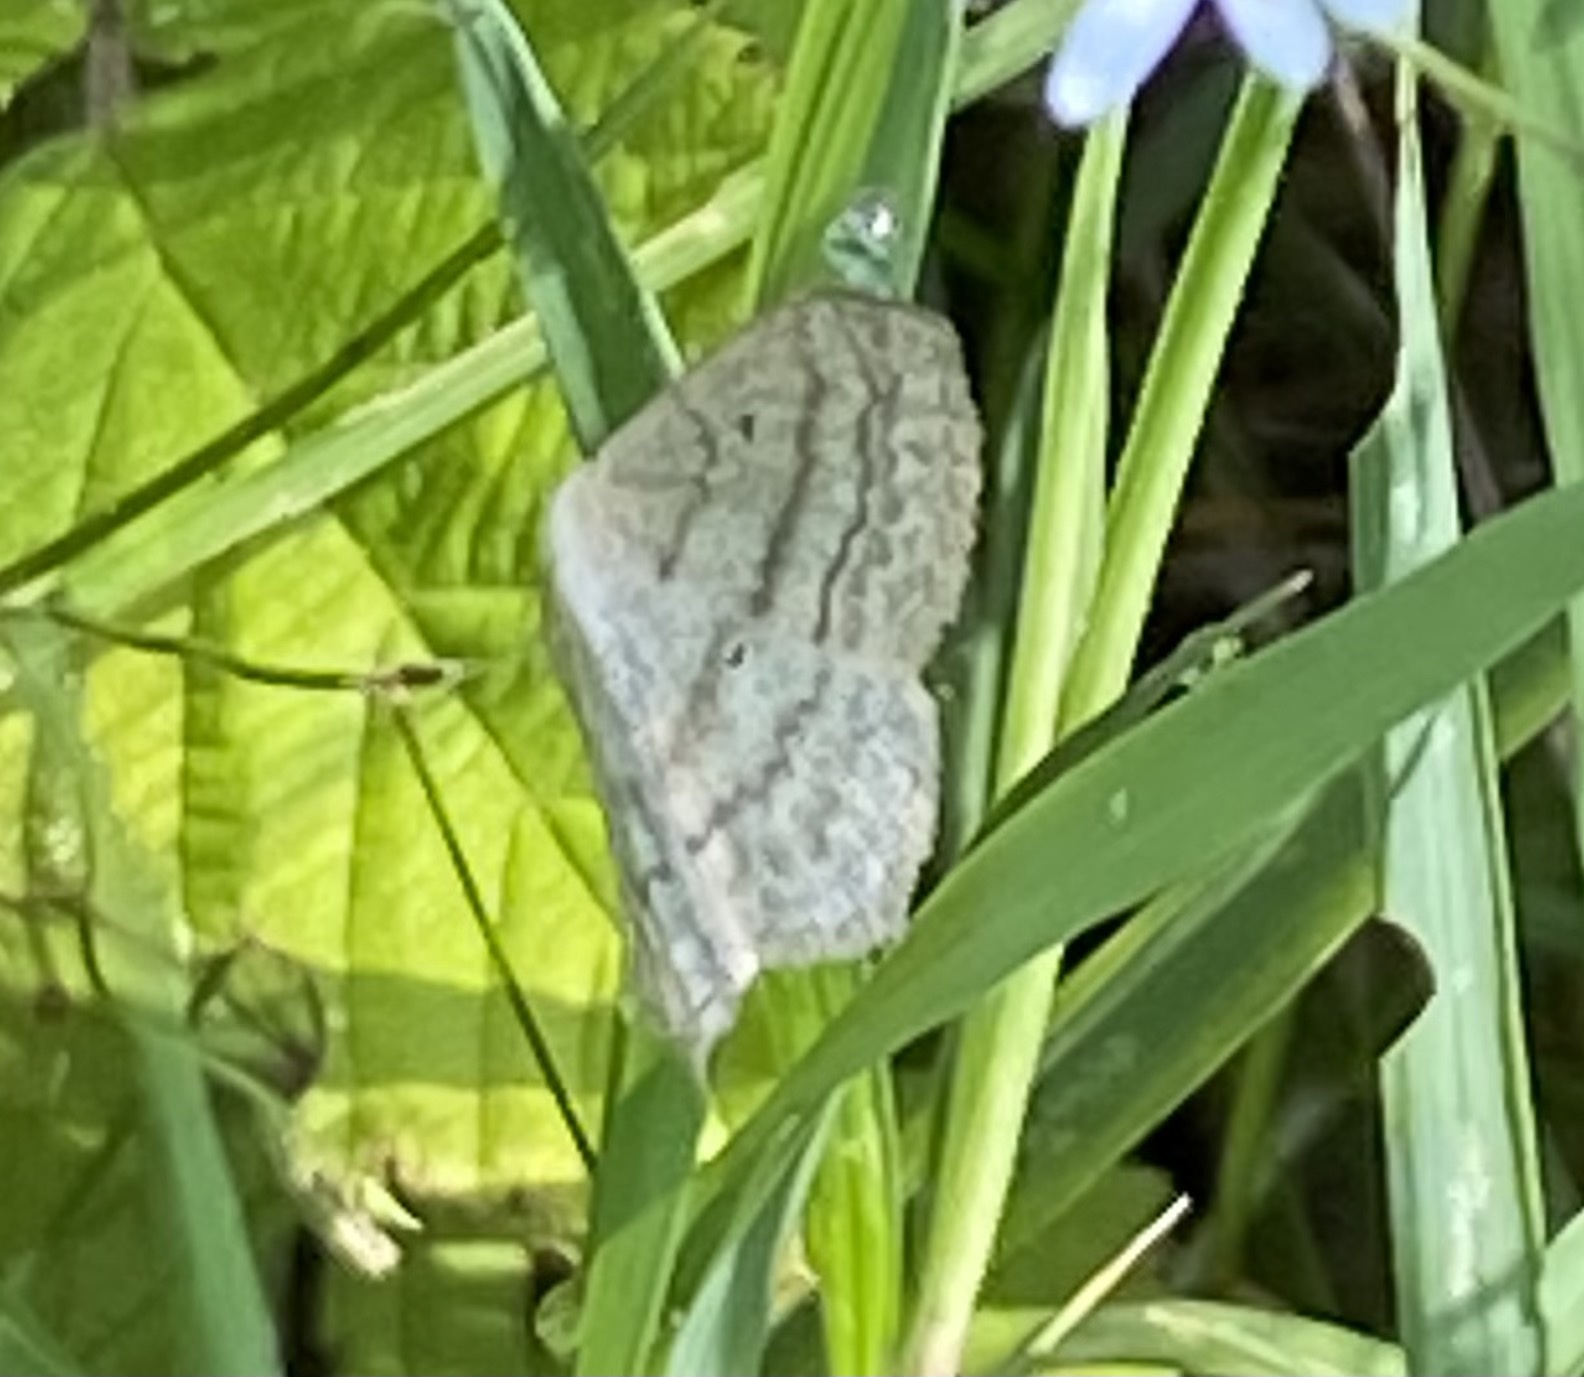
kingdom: Animalia
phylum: Arthropoda
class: Insecta
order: Lepidoptera
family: Geometridae
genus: Scopula
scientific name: Scopula nigropunctata
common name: Sub-angled wave
